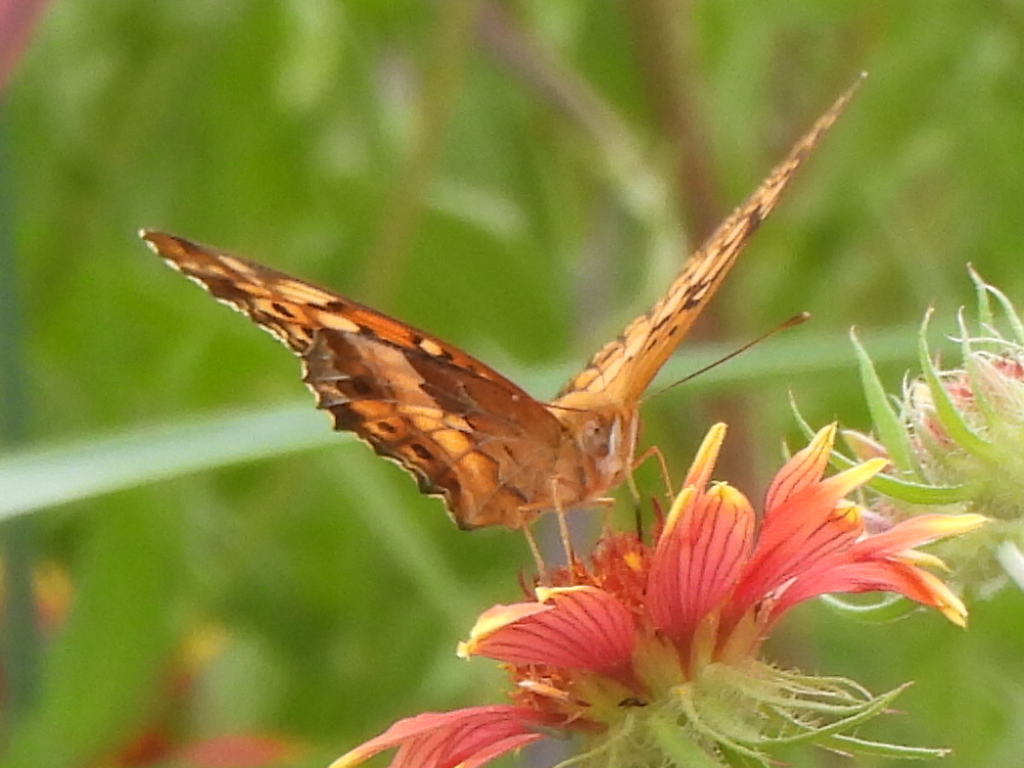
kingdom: Animalia
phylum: Arthropoda
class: Insecta
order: Lepidoptera
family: Nymphalidae
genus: Euptoieta
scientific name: Euptoieta claudia
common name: Variegated fritillary
